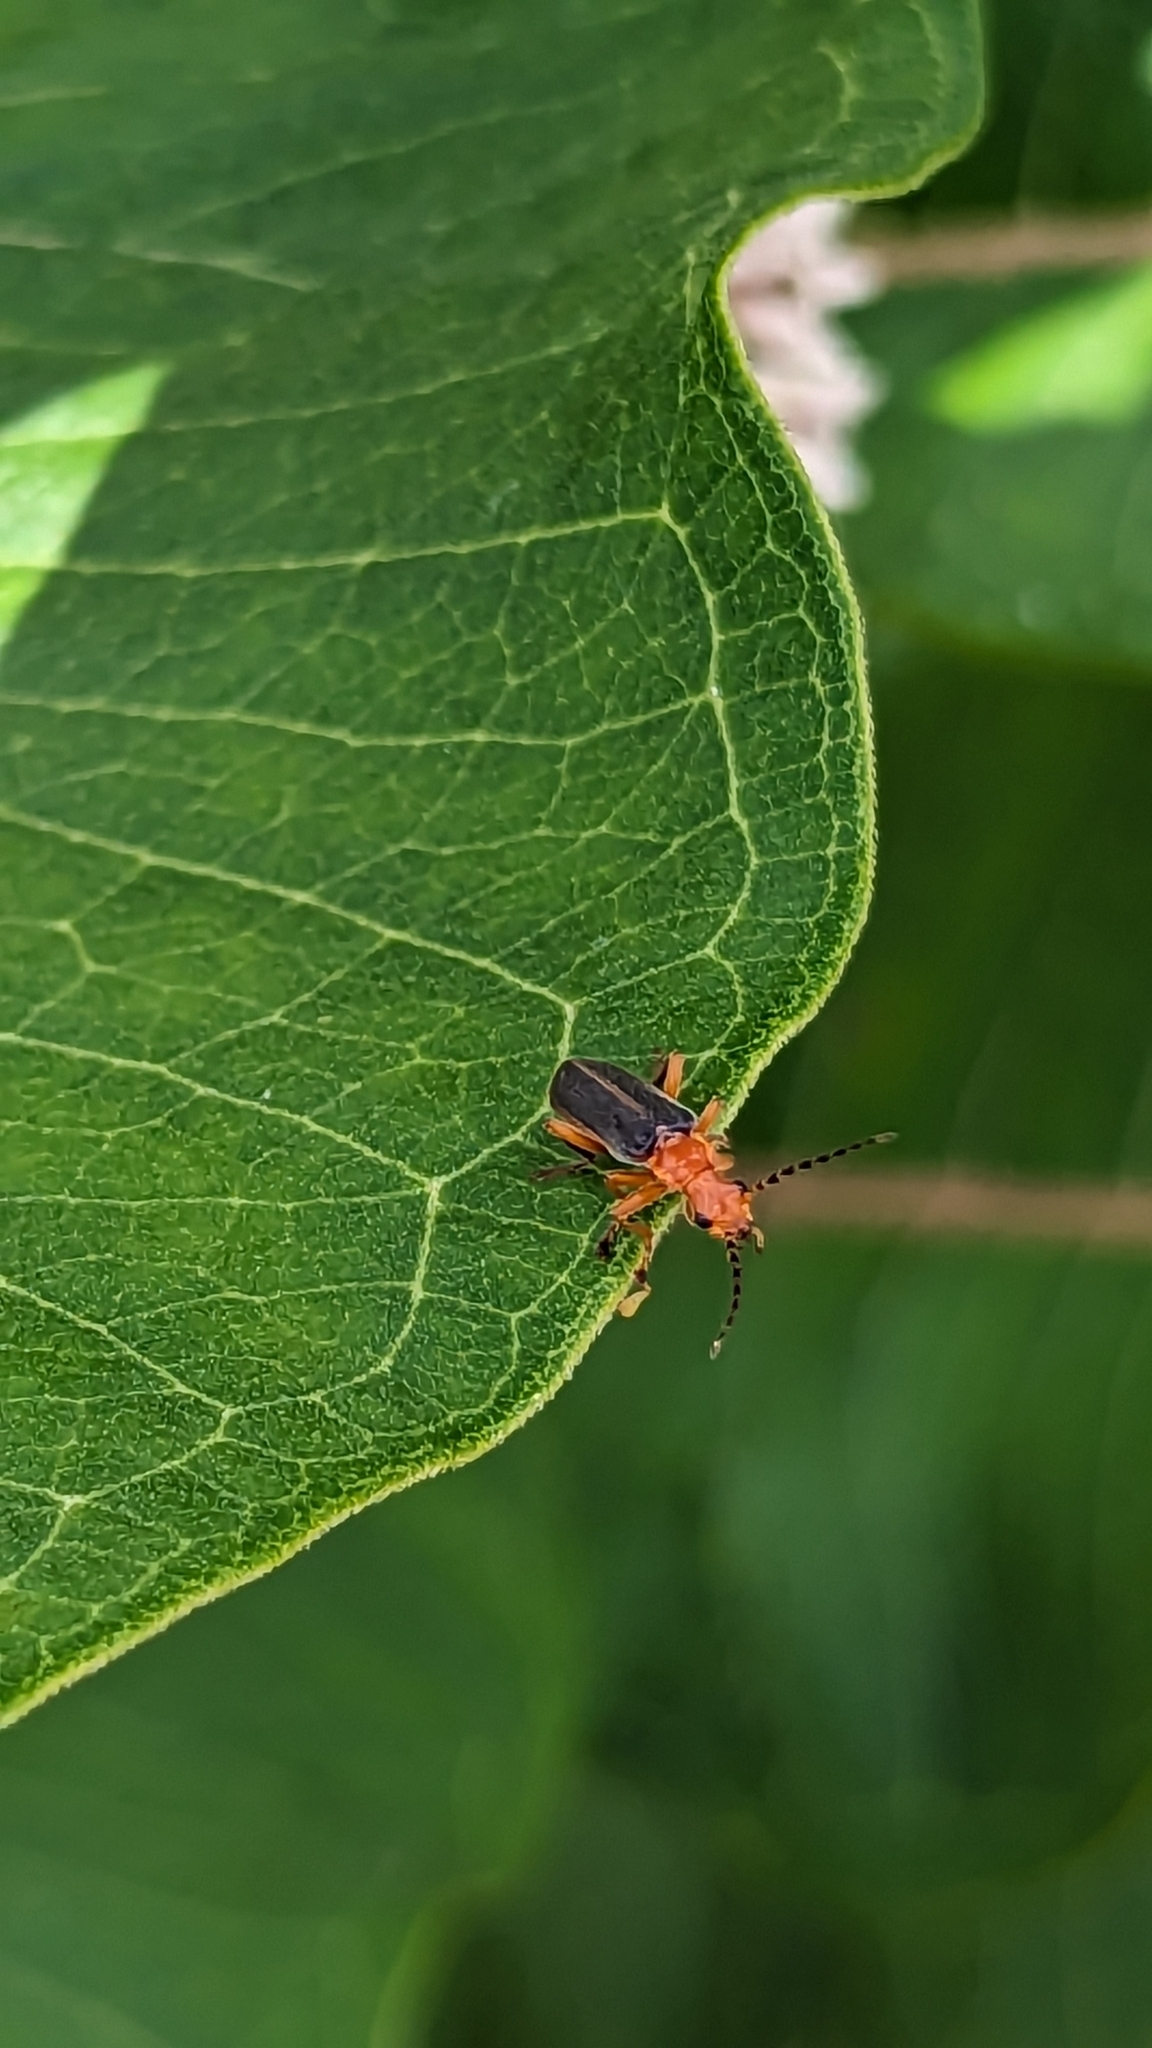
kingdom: Animalia
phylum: Arthropoda
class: Insecta
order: Coleoptera
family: Cantharidae
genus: Podabrus
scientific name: Podabrus tomentosus
